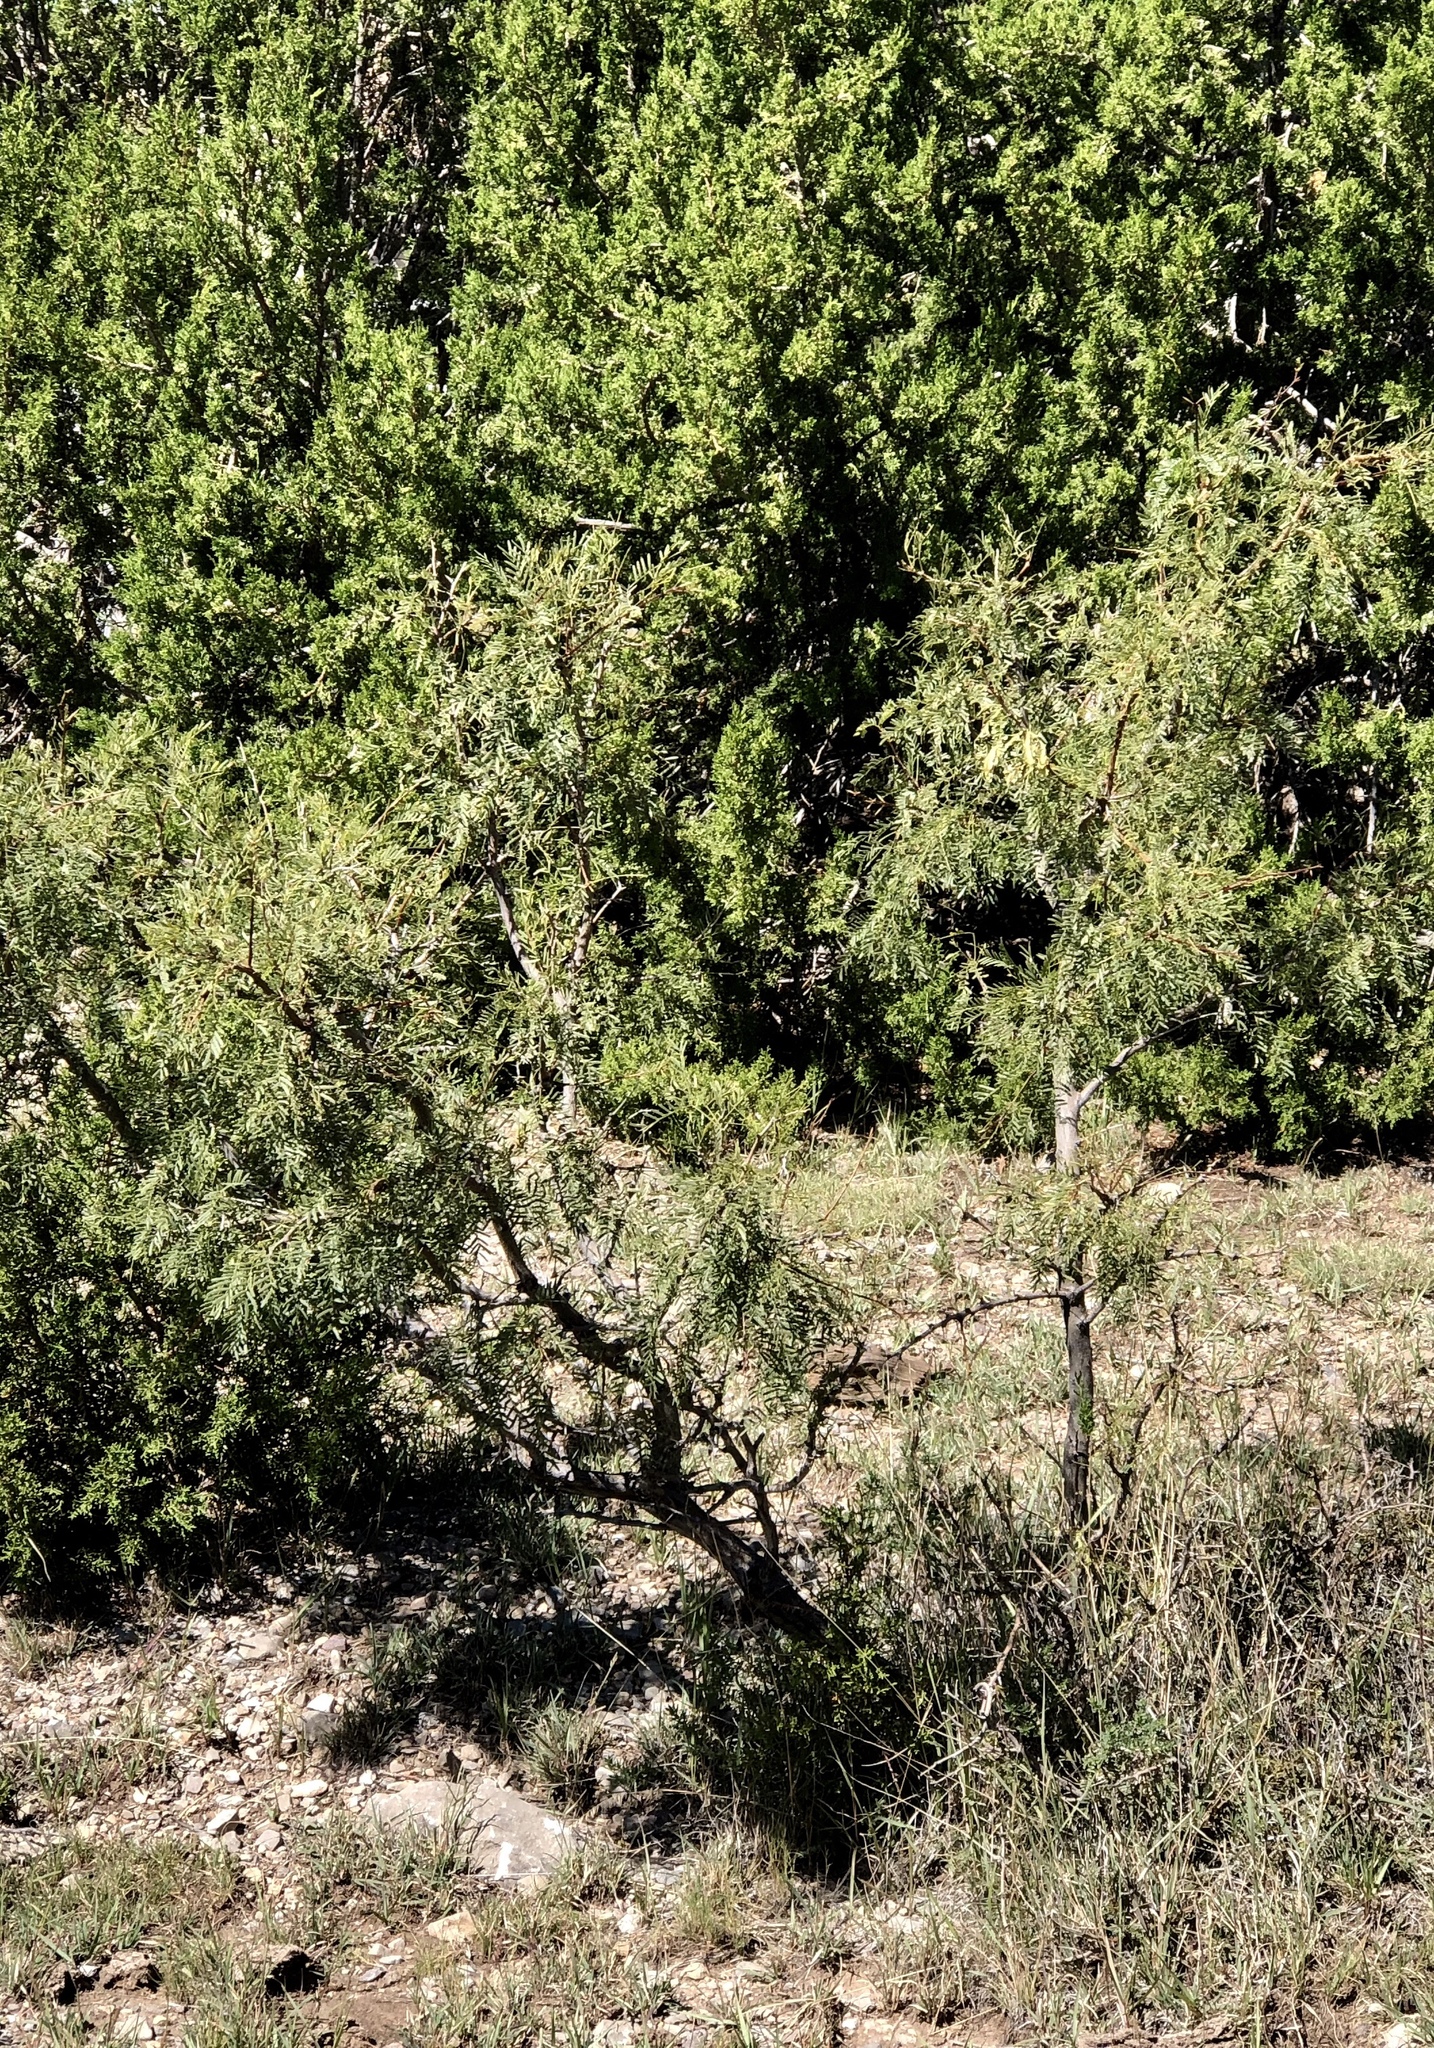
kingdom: Plantae
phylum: Tracheophyta
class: Magnoliopsida
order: Fabales
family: Fabaceae
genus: Prosopis
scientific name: Prosopis glandulosa
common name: Honey mesquite
